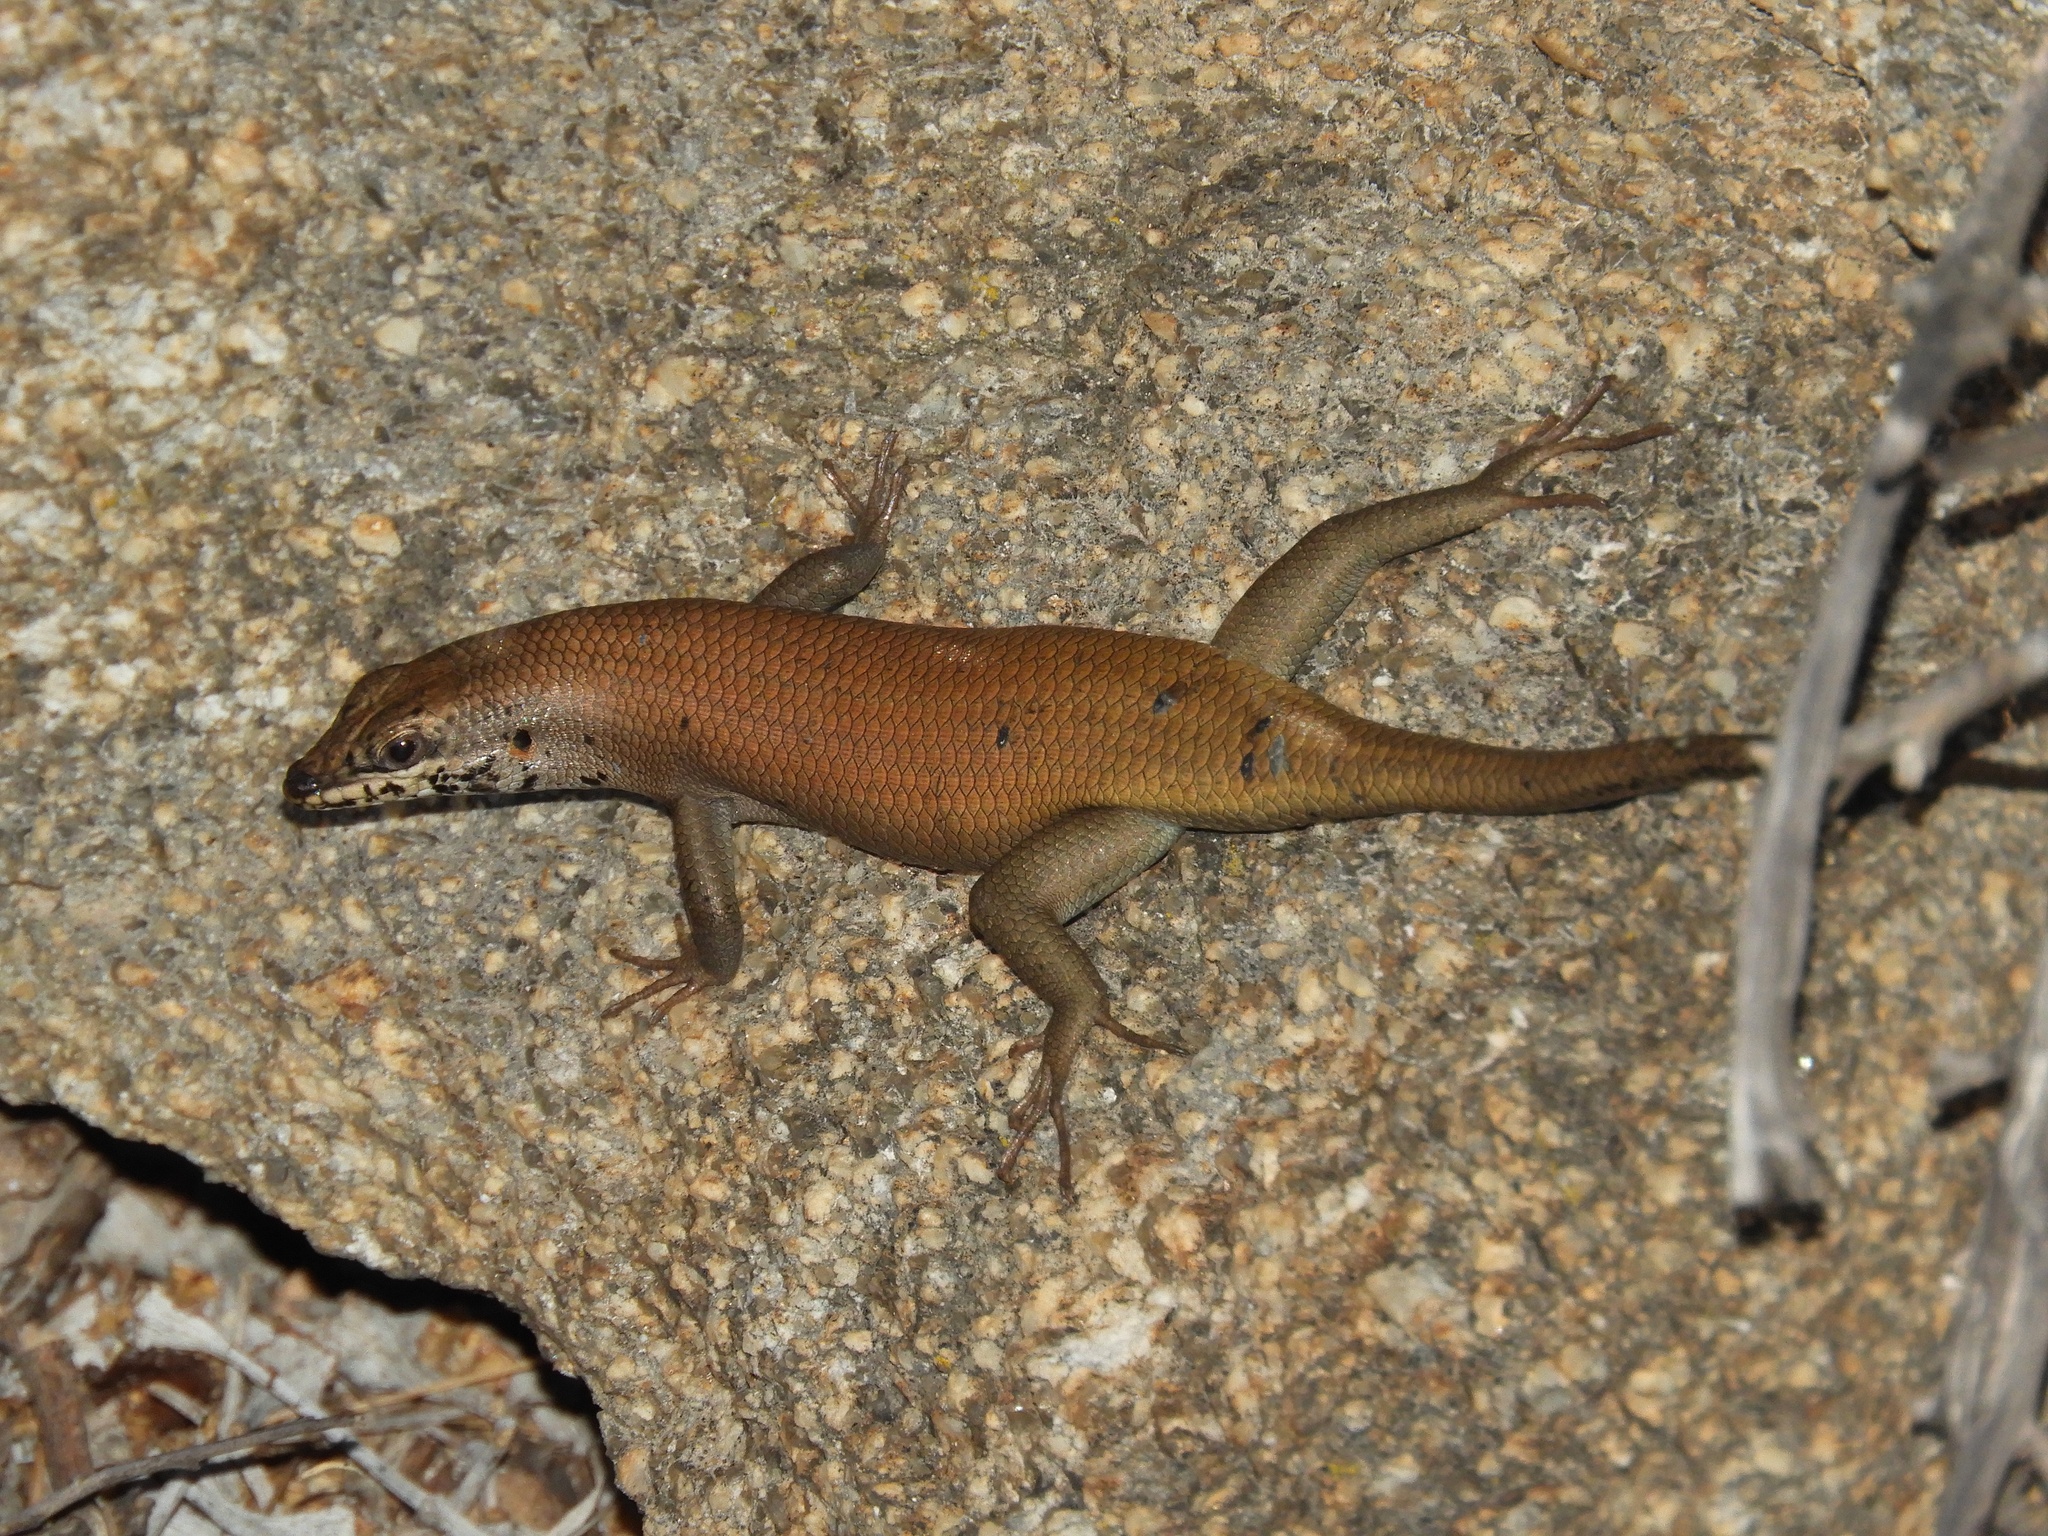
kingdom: Animalia
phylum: Chordata
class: Squamata
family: Scincidae
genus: Trachylepis
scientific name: Trachylepis sulcata
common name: Western rock skink
